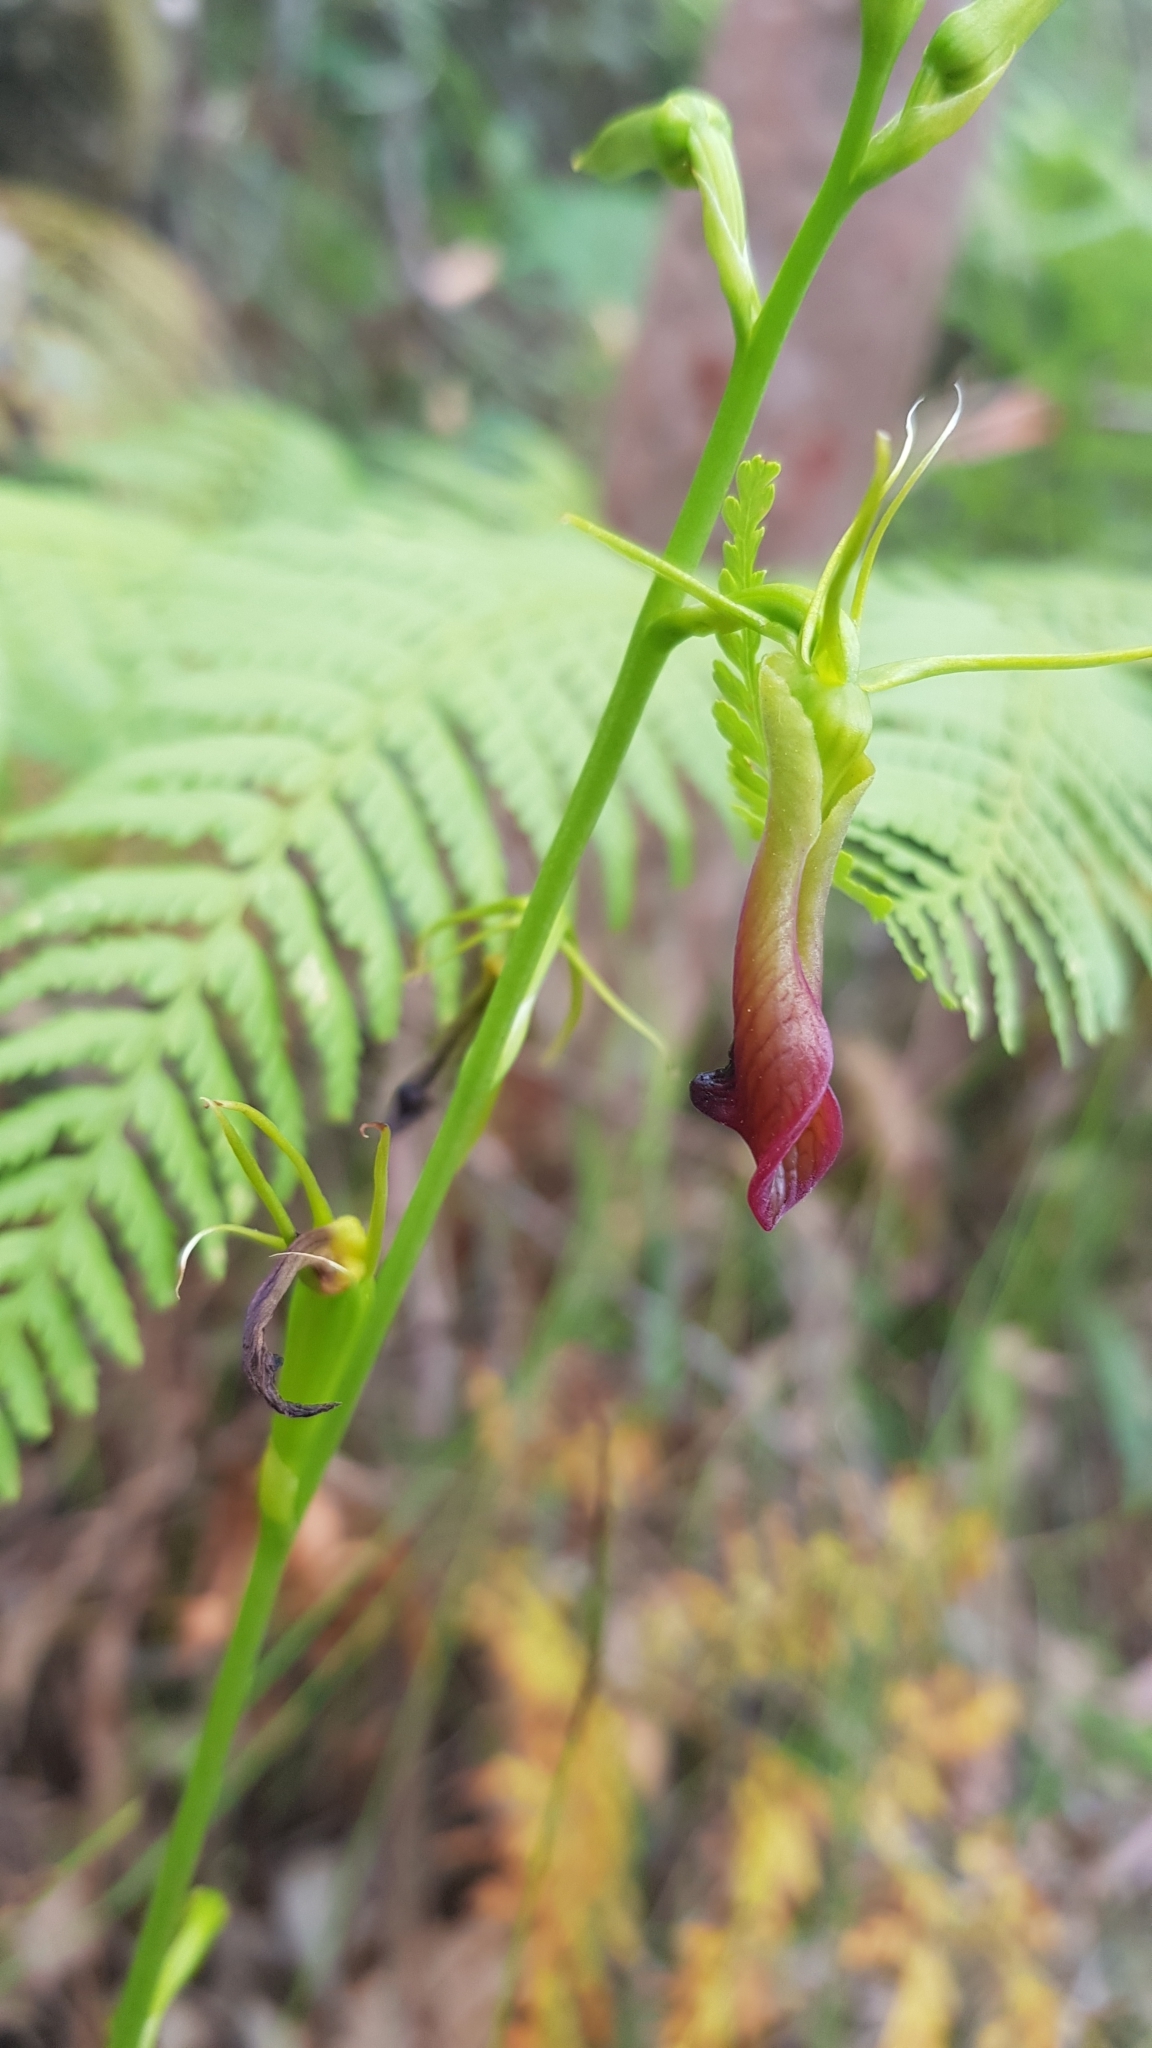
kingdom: Plantae
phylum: Tracheophyta
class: Liliopsida
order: Asparagales
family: Orchidaceae
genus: Cryptostylis
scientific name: Cryptostylis subulata
